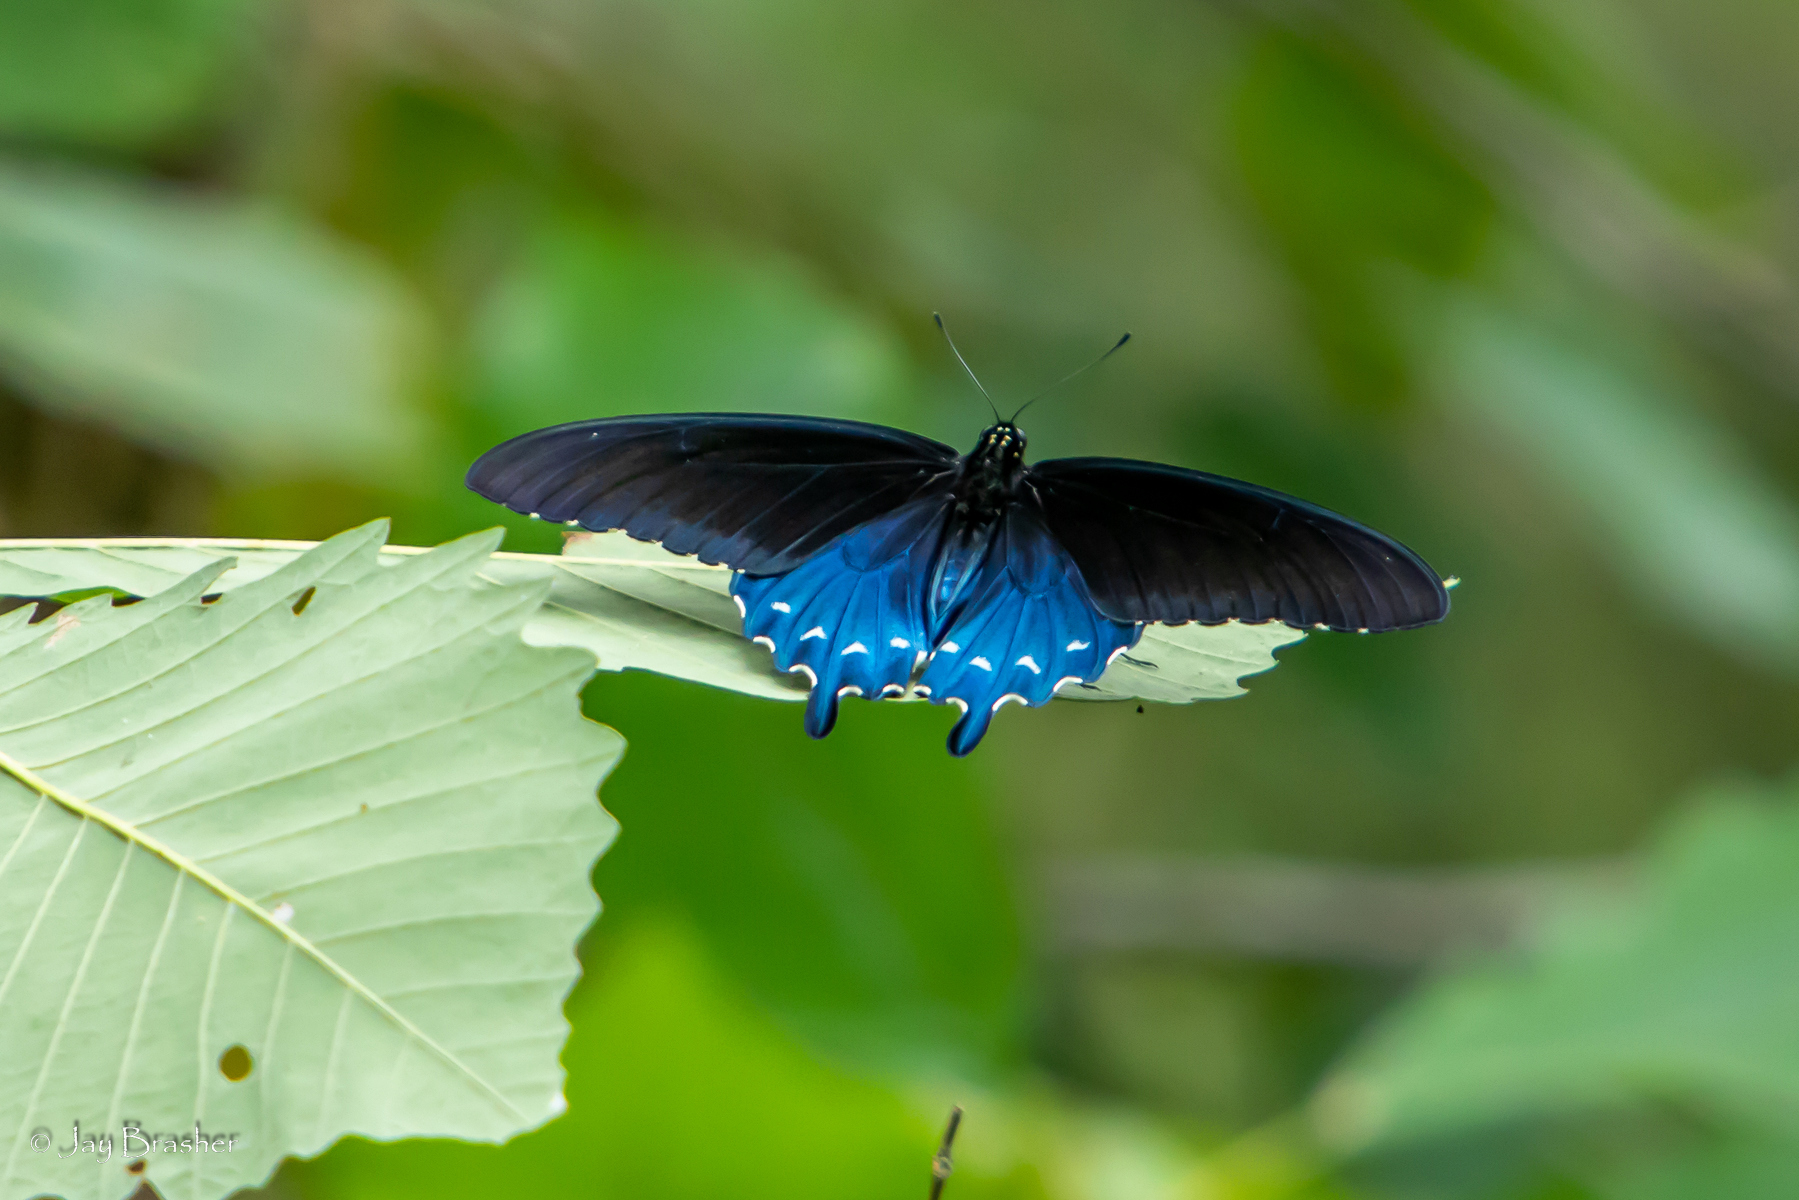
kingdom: Animalia
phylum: Arthropoda
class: Insecta
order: Lepidoptera
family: Papilionidae
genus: Battus
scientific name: Battus philenor
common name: Pipevine swallowtail
